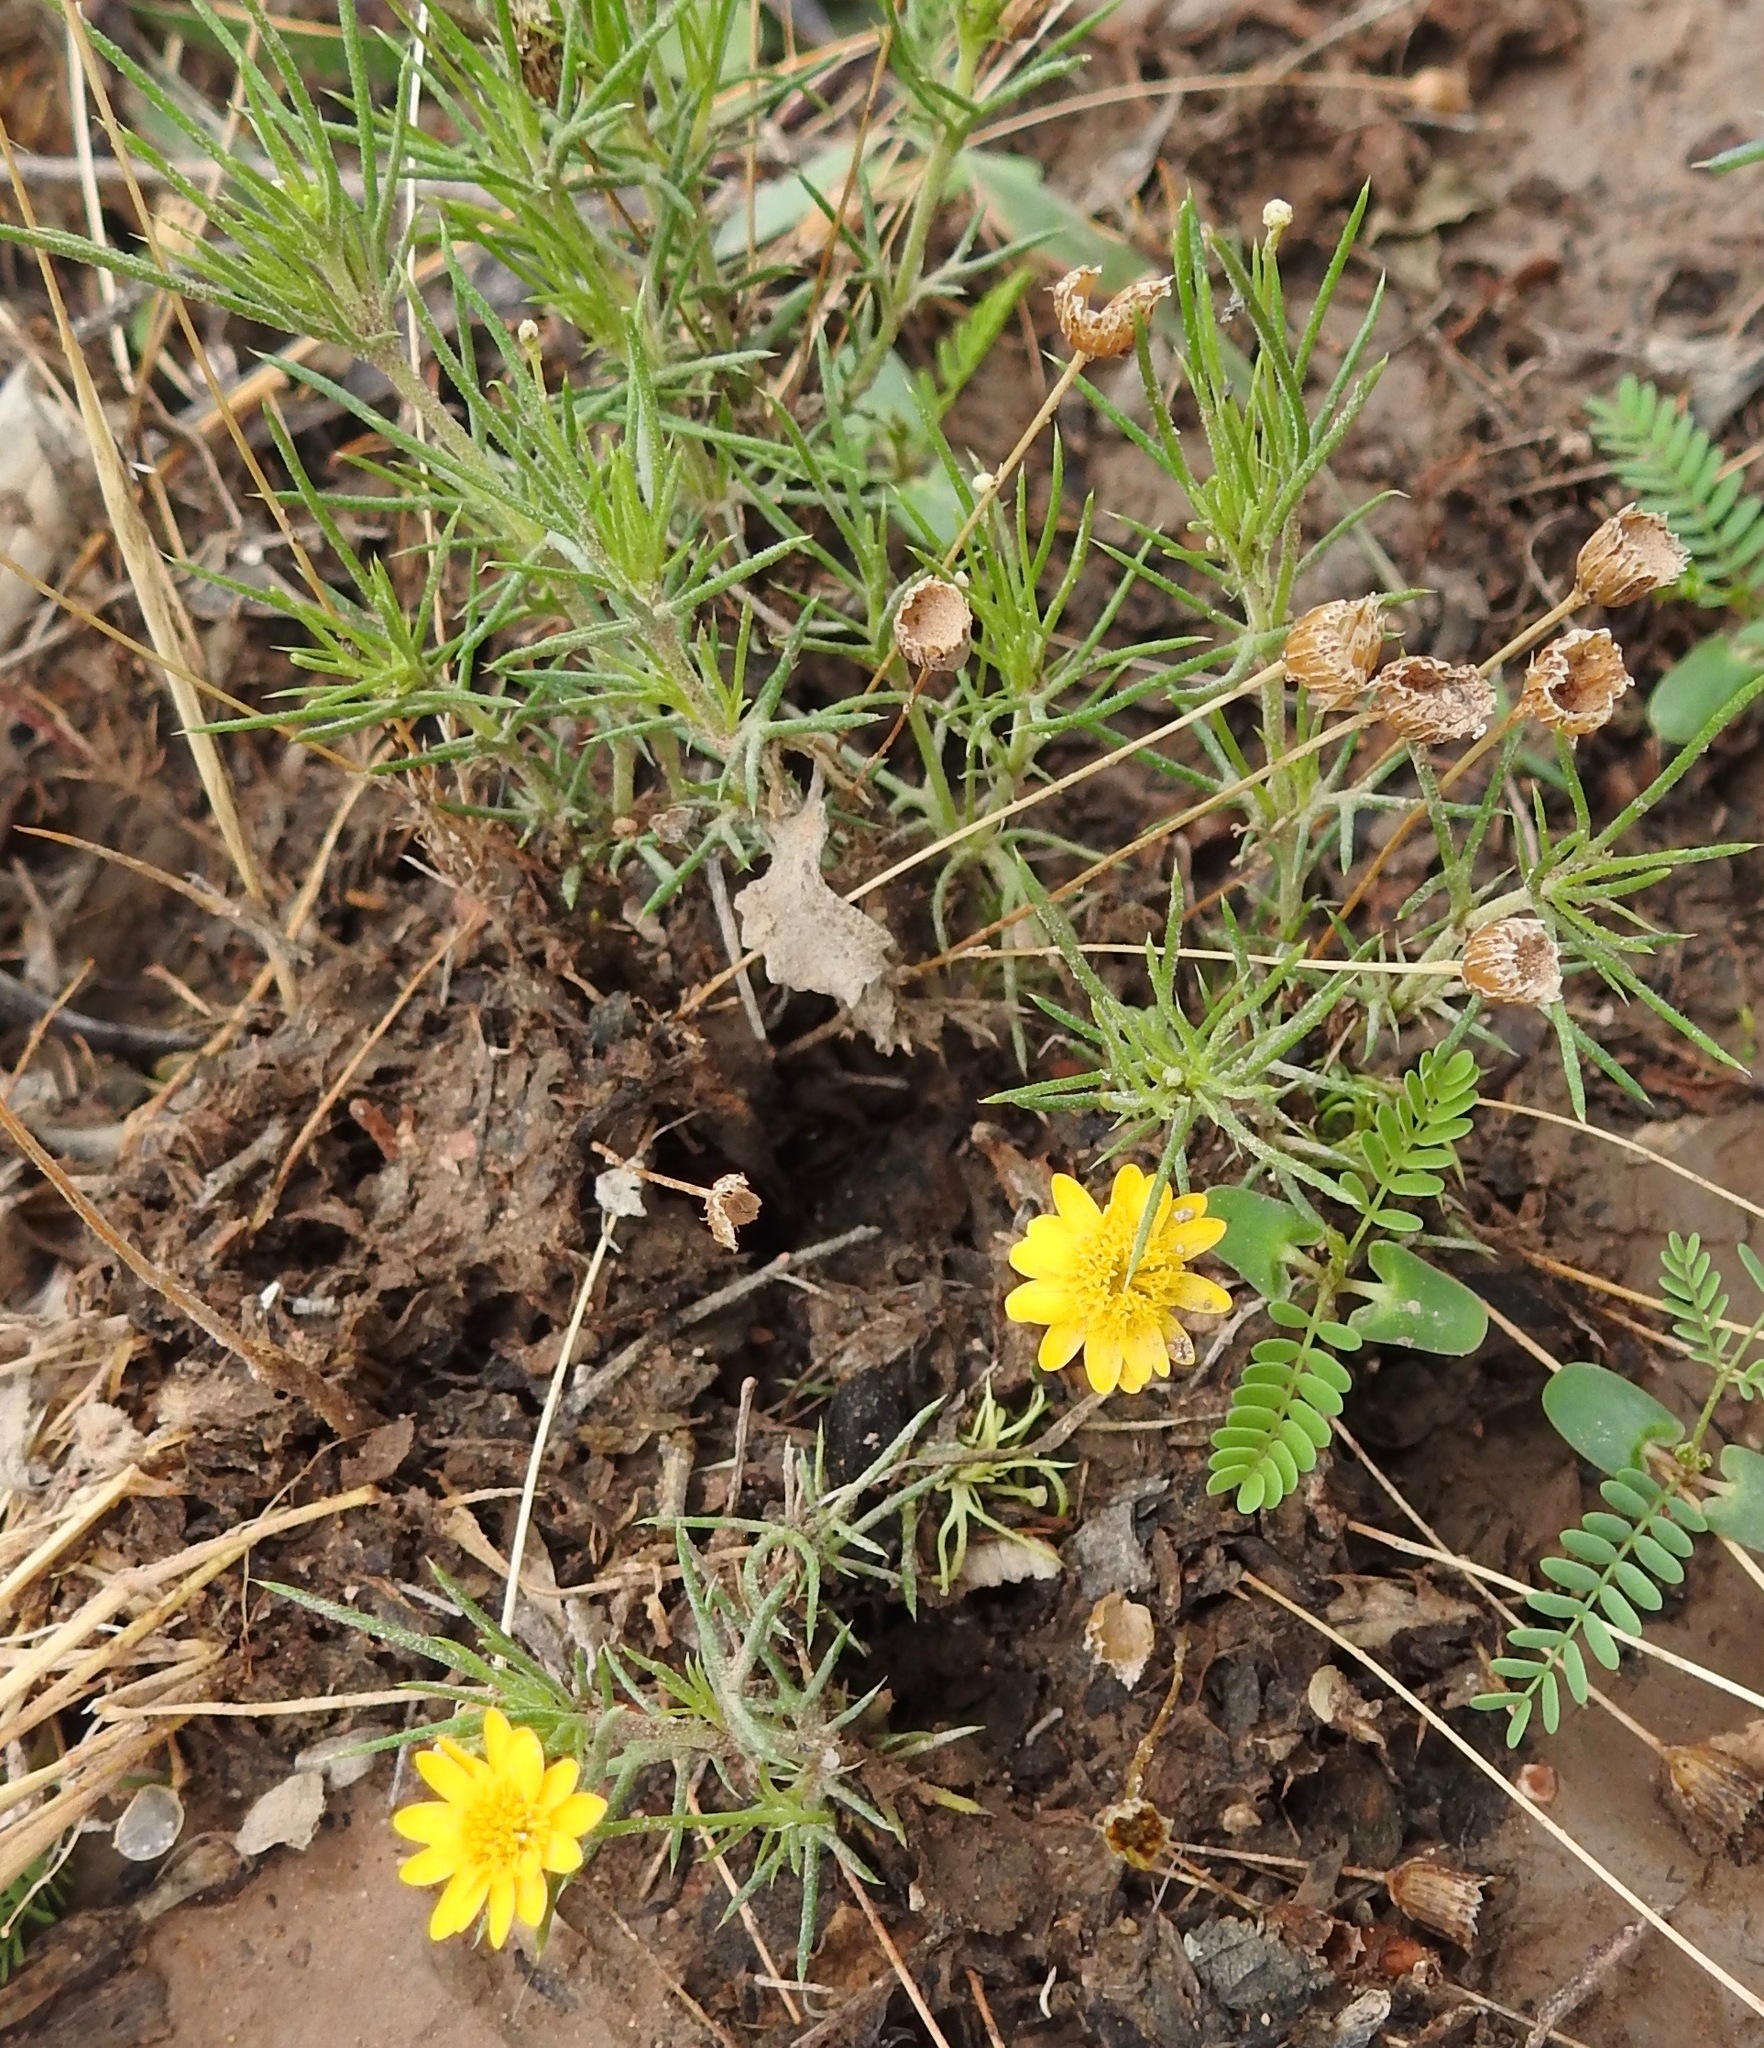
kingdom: Plantae
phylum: Tracheophyta
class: Magnoliopsida
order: Asterales
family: Asteraceae
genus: Thymophylla
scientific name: Thymophylla pentachaeta
